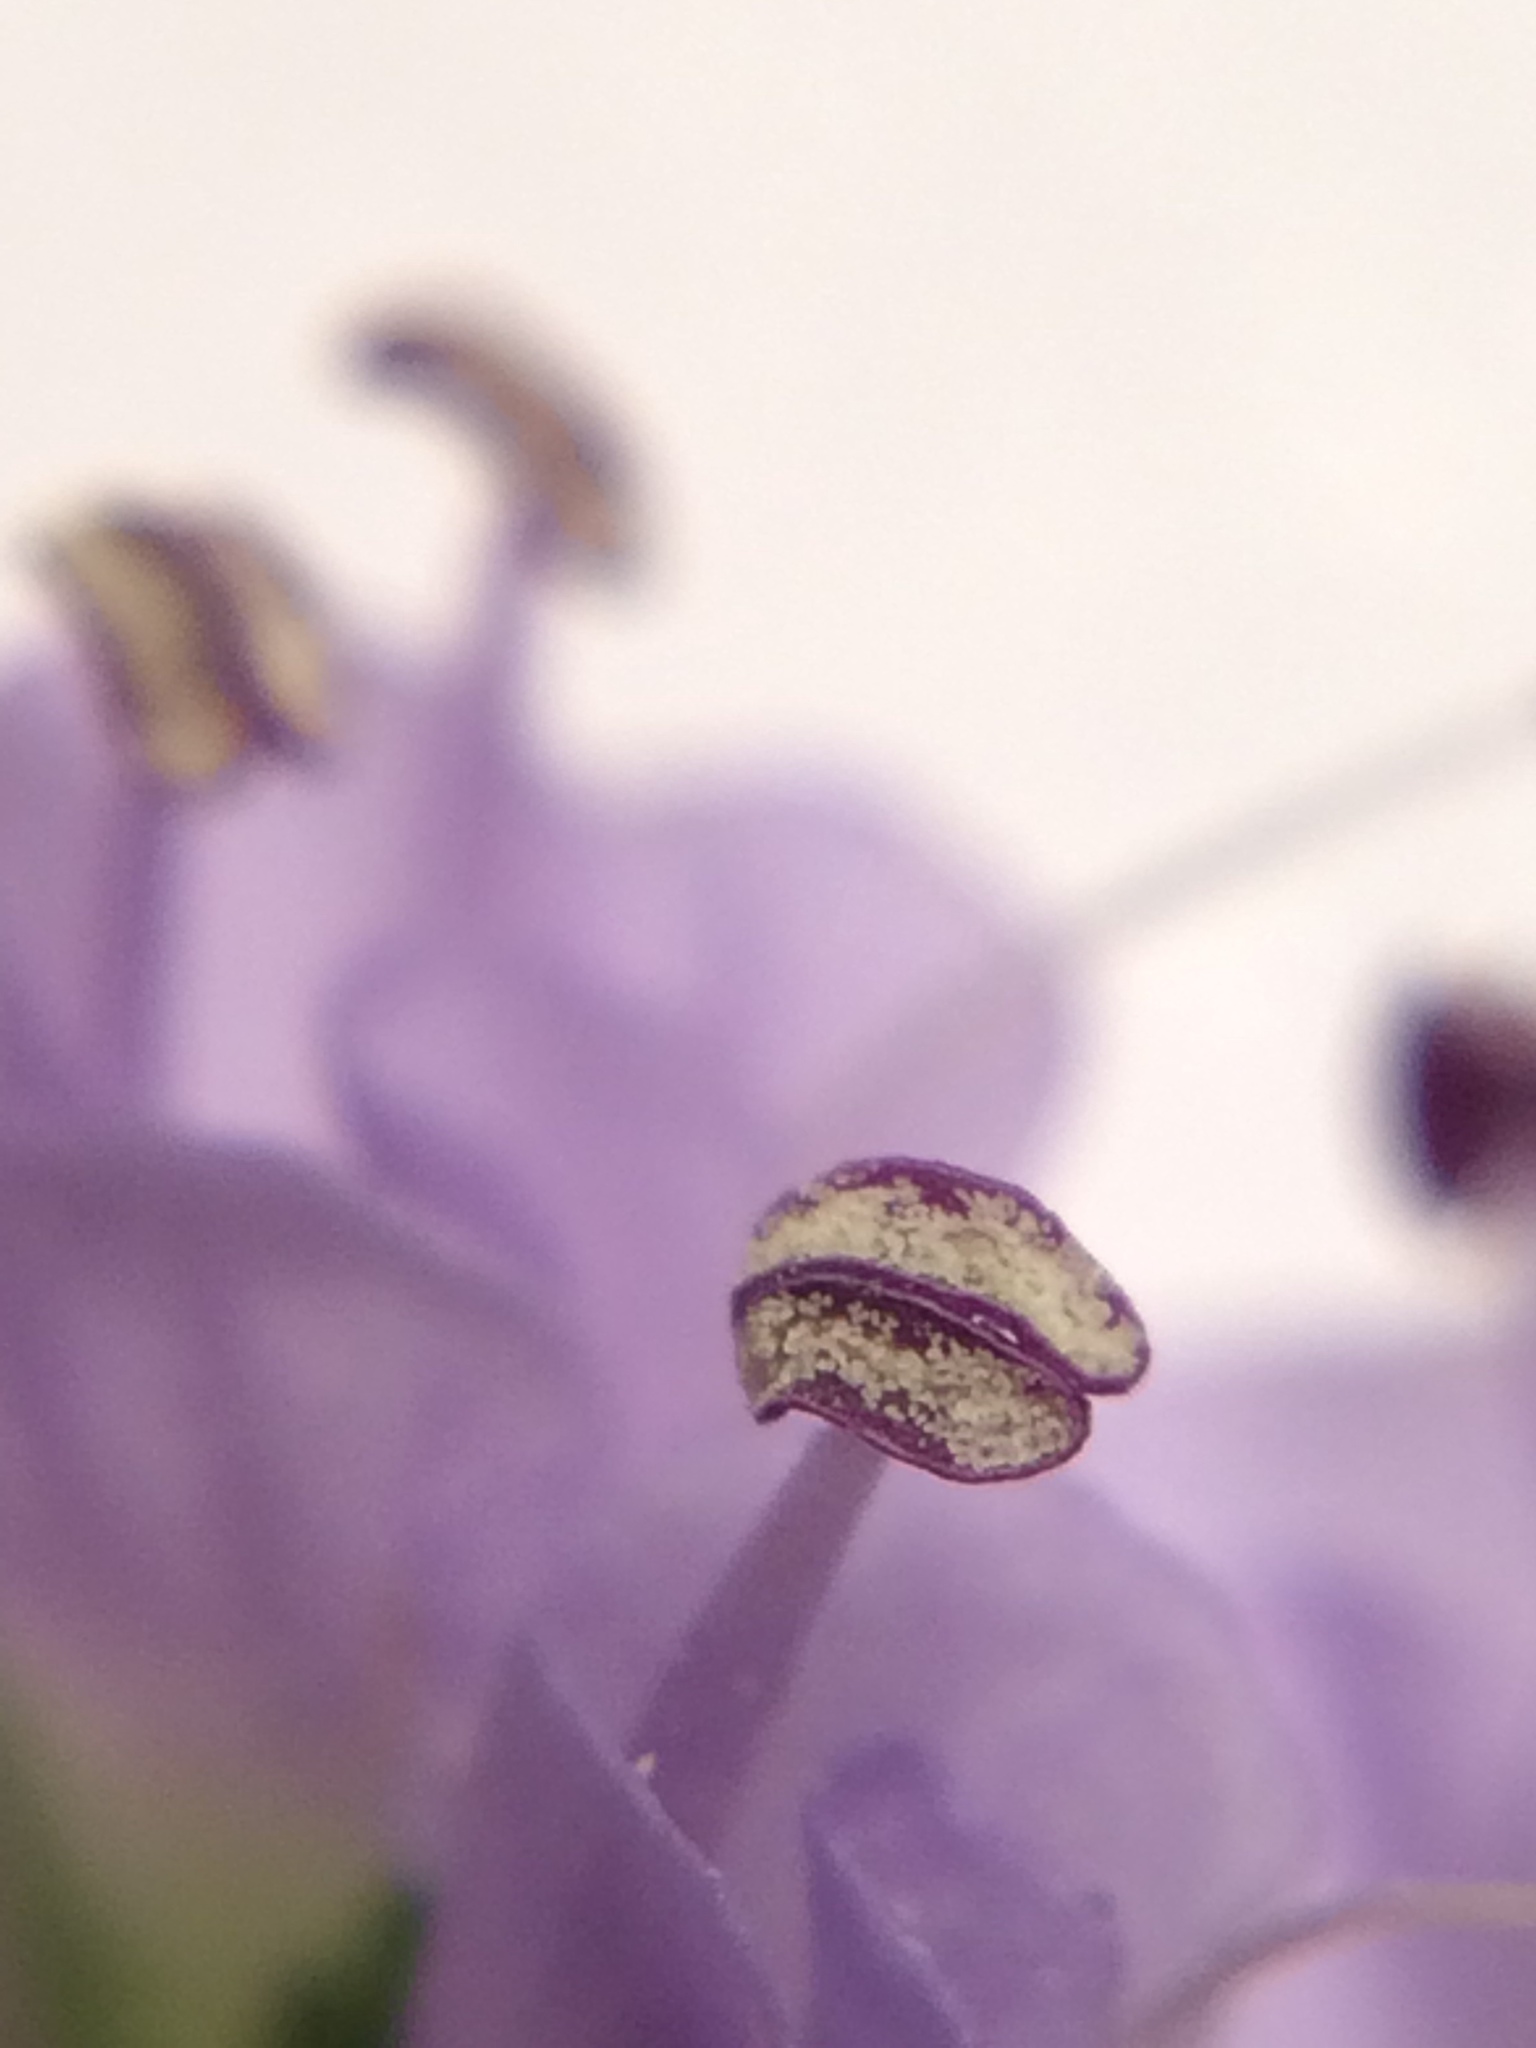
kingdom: Plantae
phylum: Tracheophyta
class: Magnoliopsida
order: Lamiales
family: Plantaginaceae
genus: Synthyris
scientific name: Synthyris reniformis
